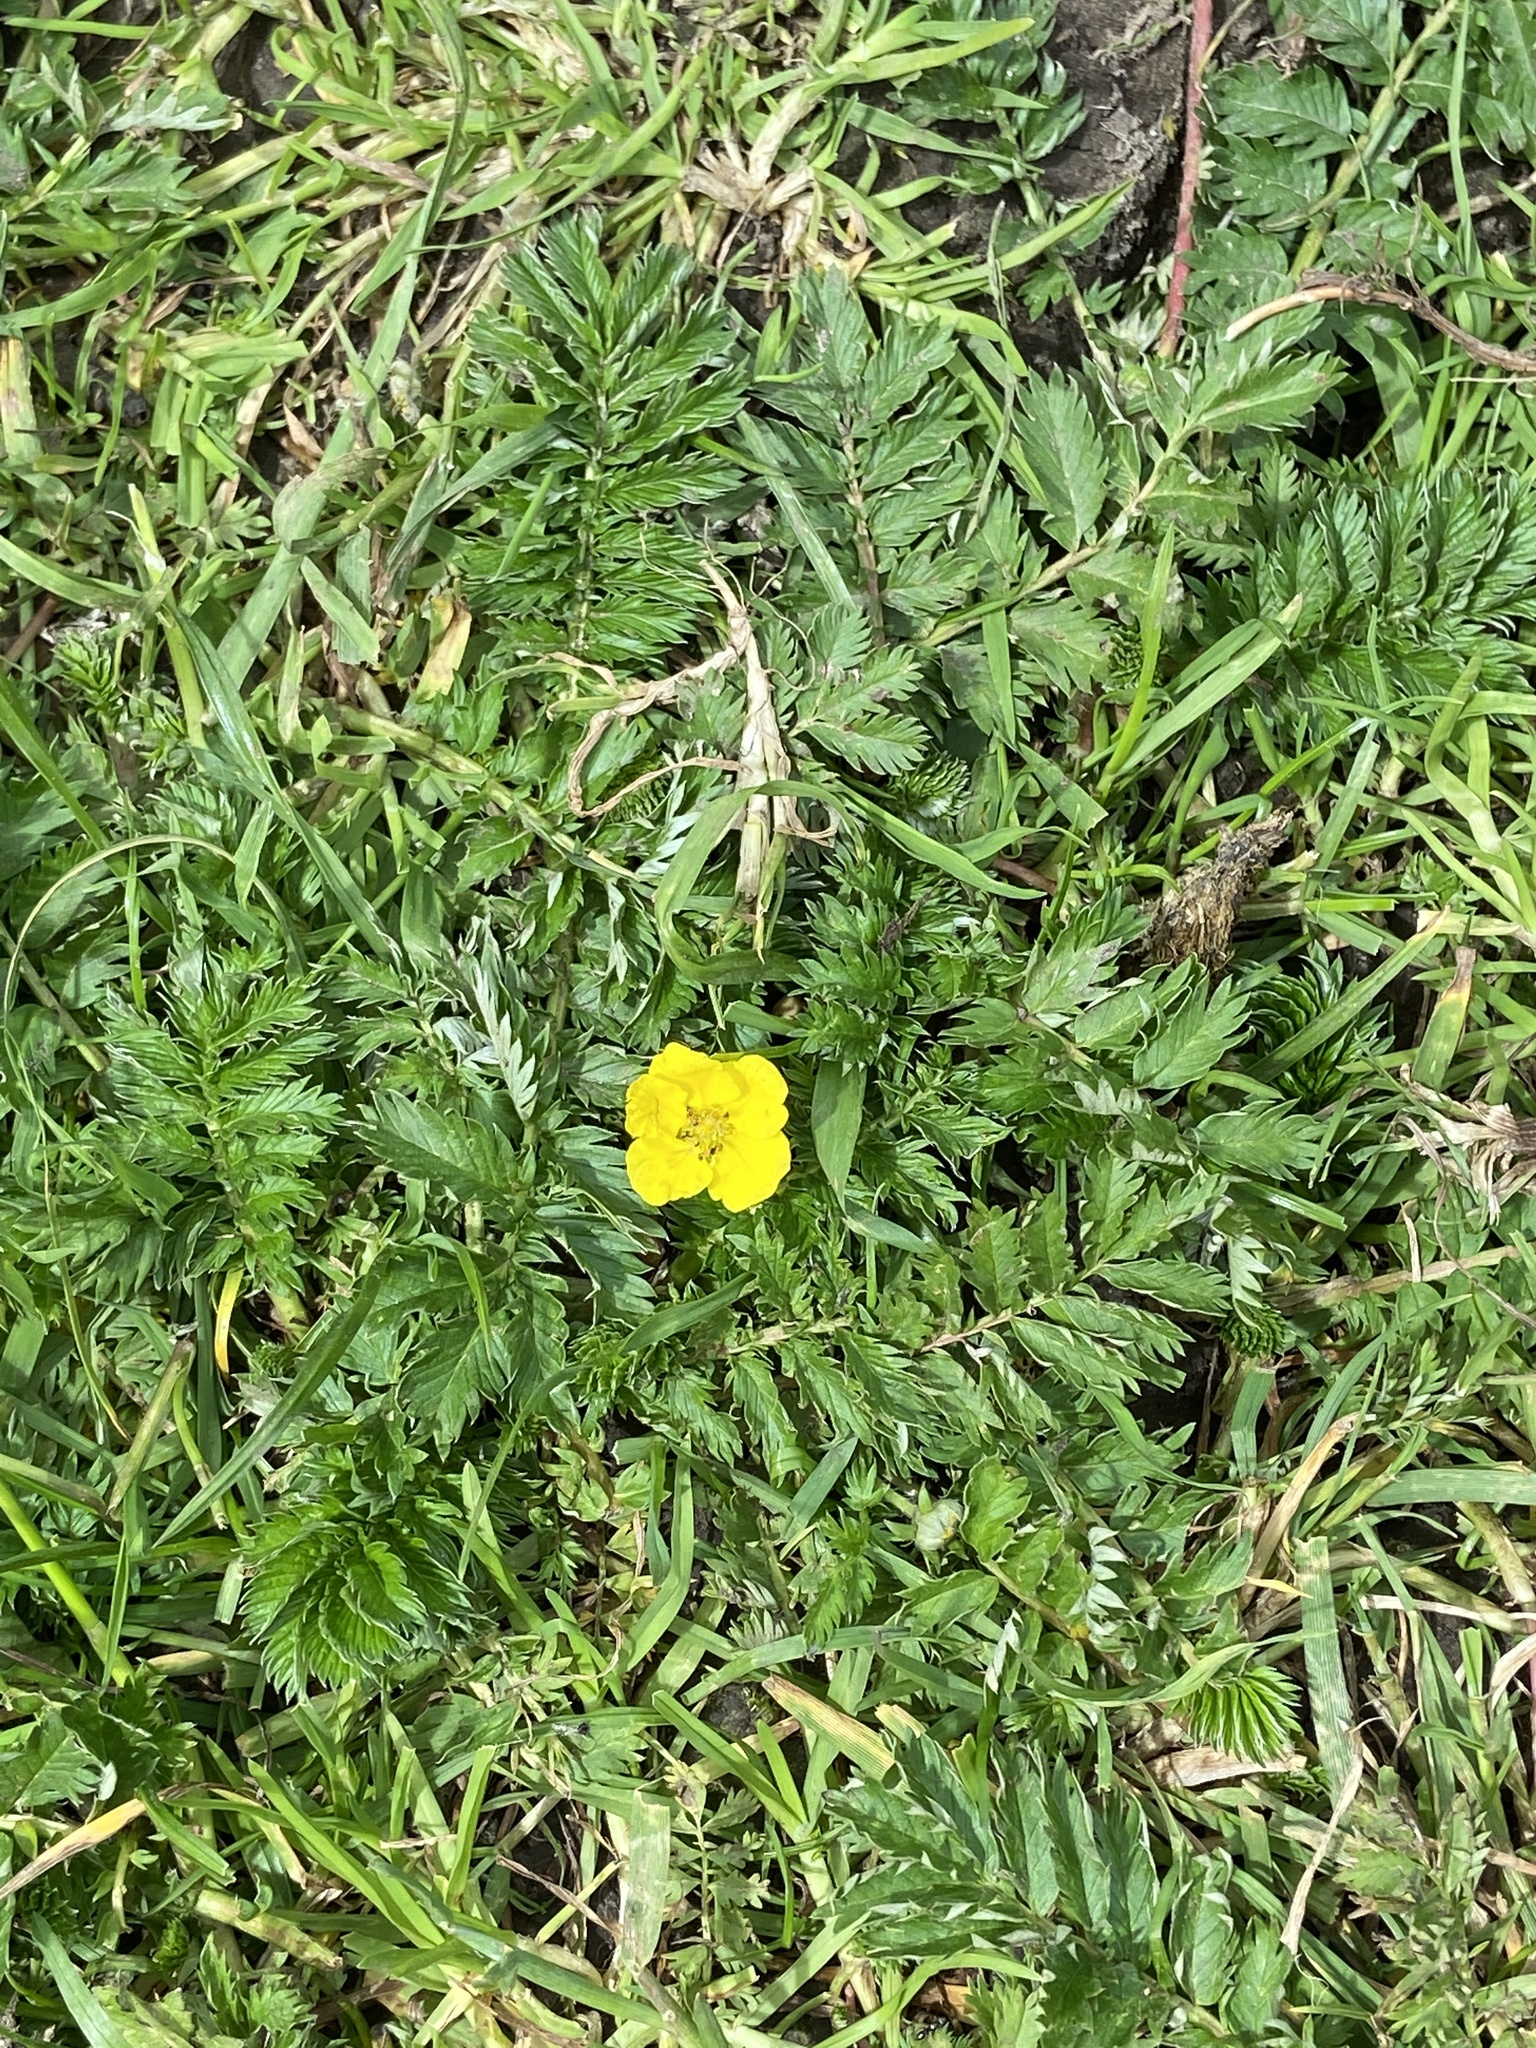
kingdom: Plantae
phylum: Tracheophyta
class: Magnoliopsida
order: Rosales
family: Rosaceae
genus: Argentina
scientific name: Argentina anserina
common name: Common silverweed
